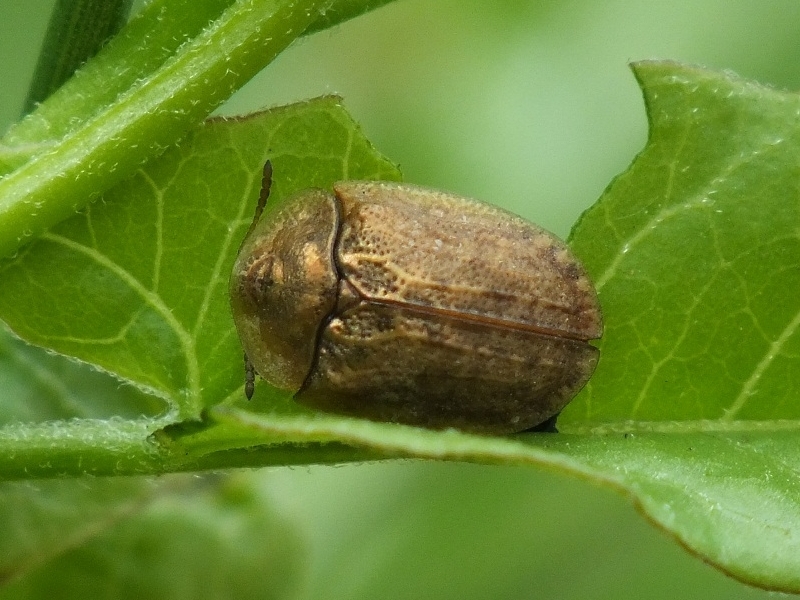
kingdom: Animalia
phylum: Arthropoda
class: Insecta
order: Coleoptera
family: Chrysomelidae
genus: Hypocassida
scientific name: Hypocassida subferruginea
